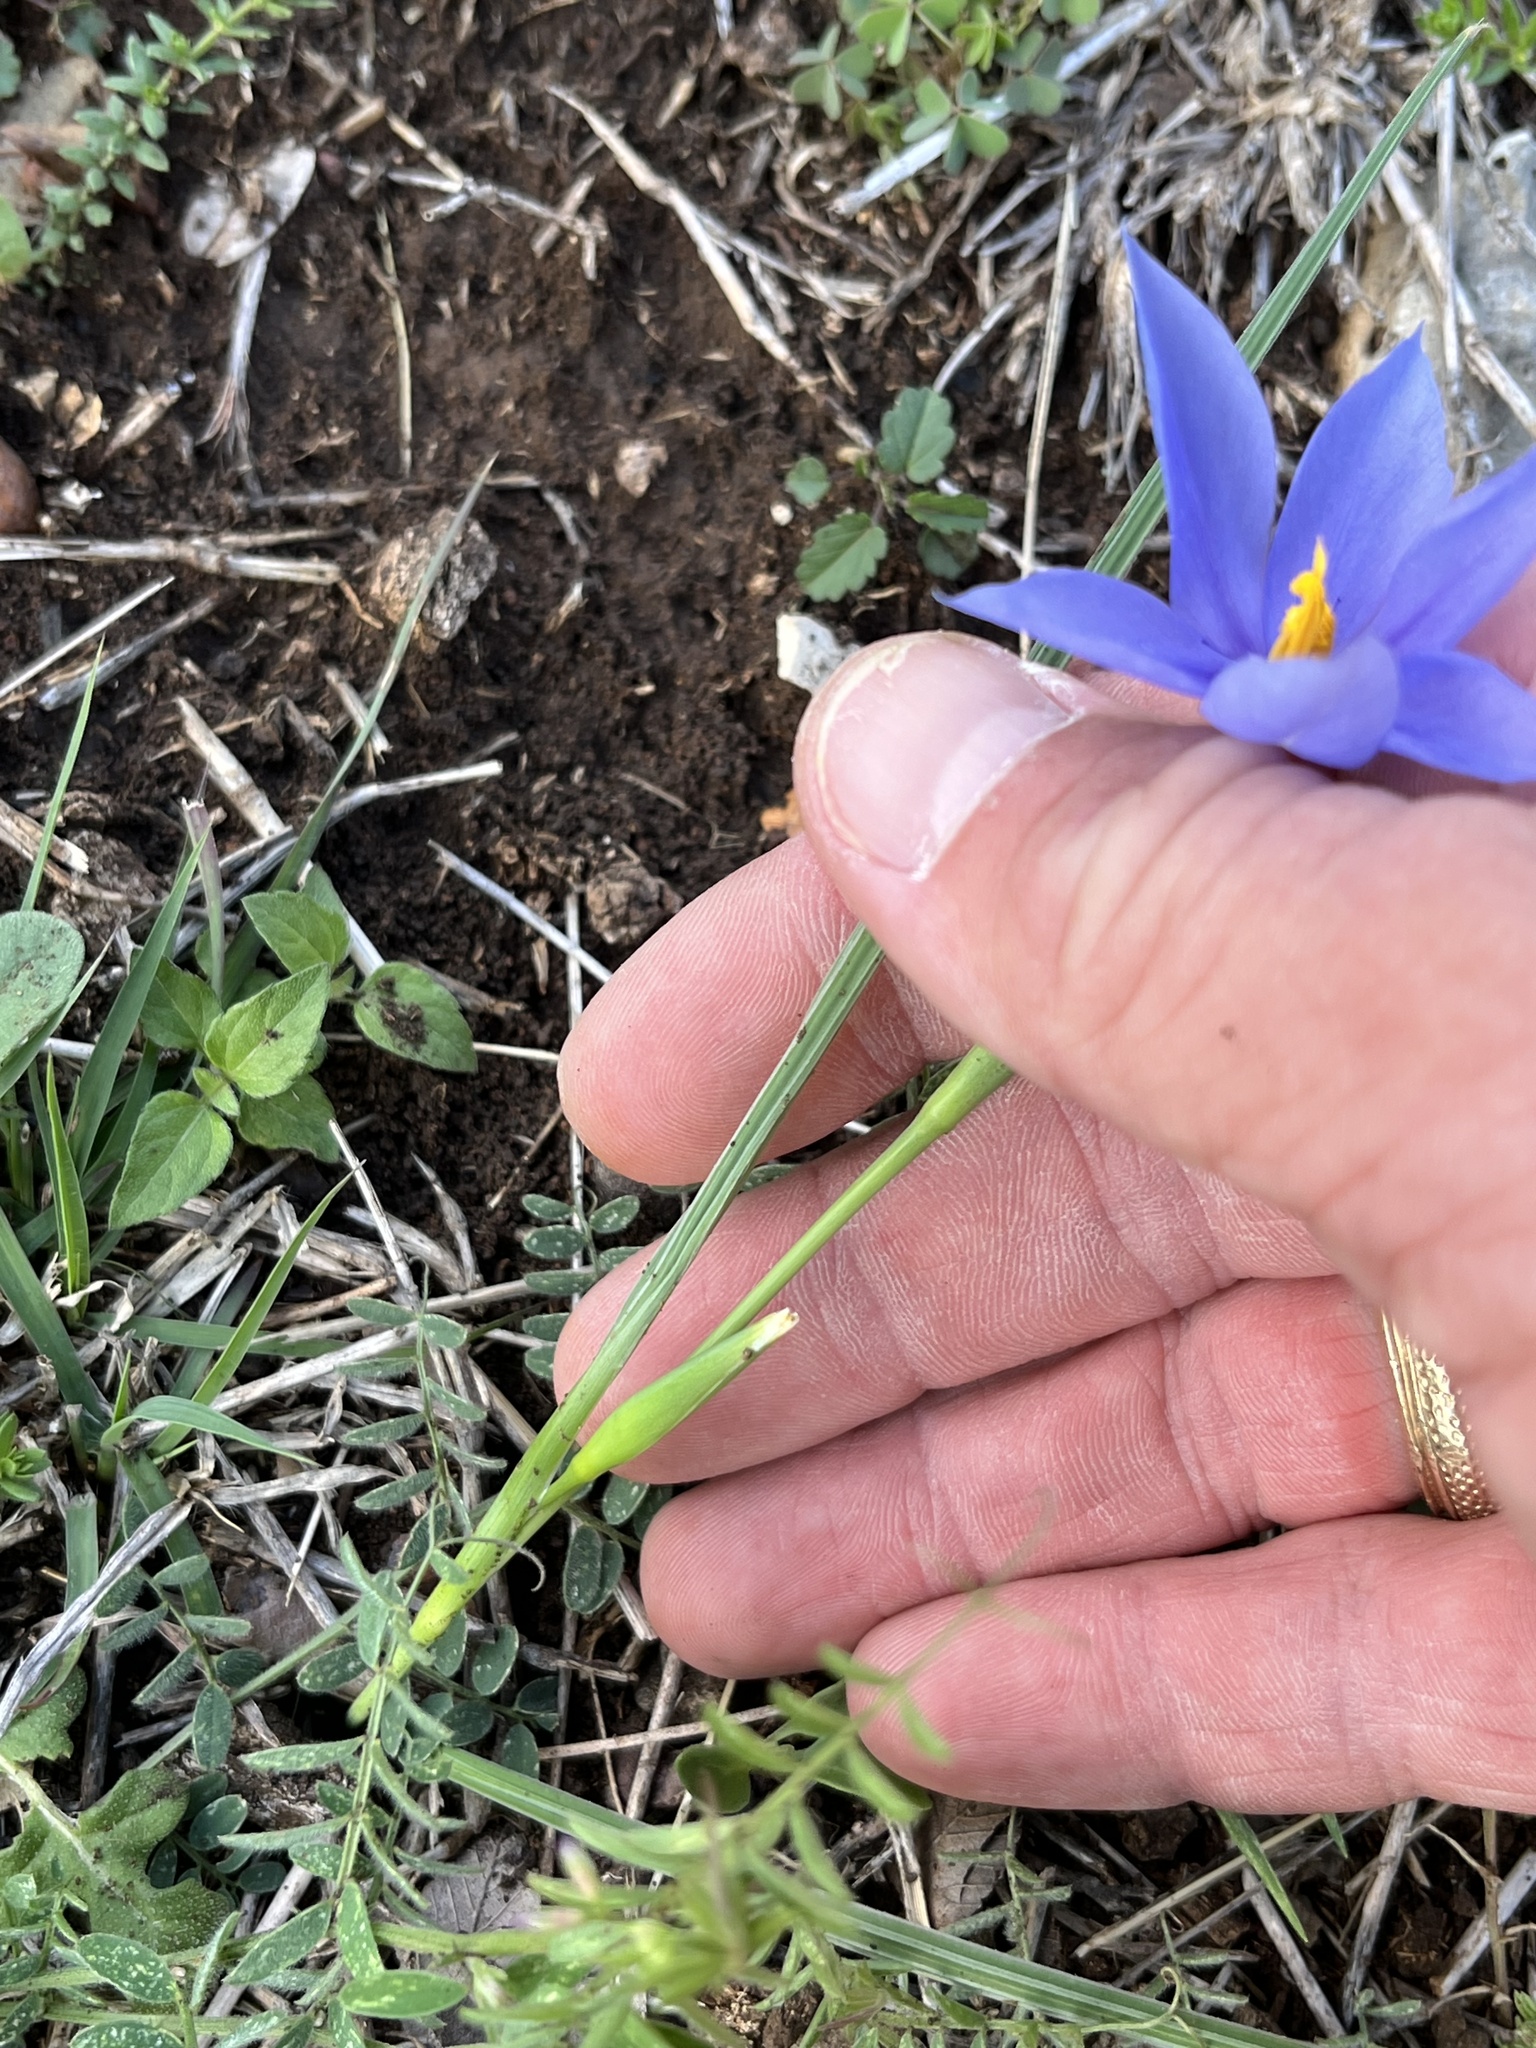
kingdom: Plantae
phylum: Tracheophyta
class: Liliopsida
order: Asparagales
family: Iridaceae
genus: Nemastylis
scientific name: Nemastylis geminiflora
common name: Prairie celestial
